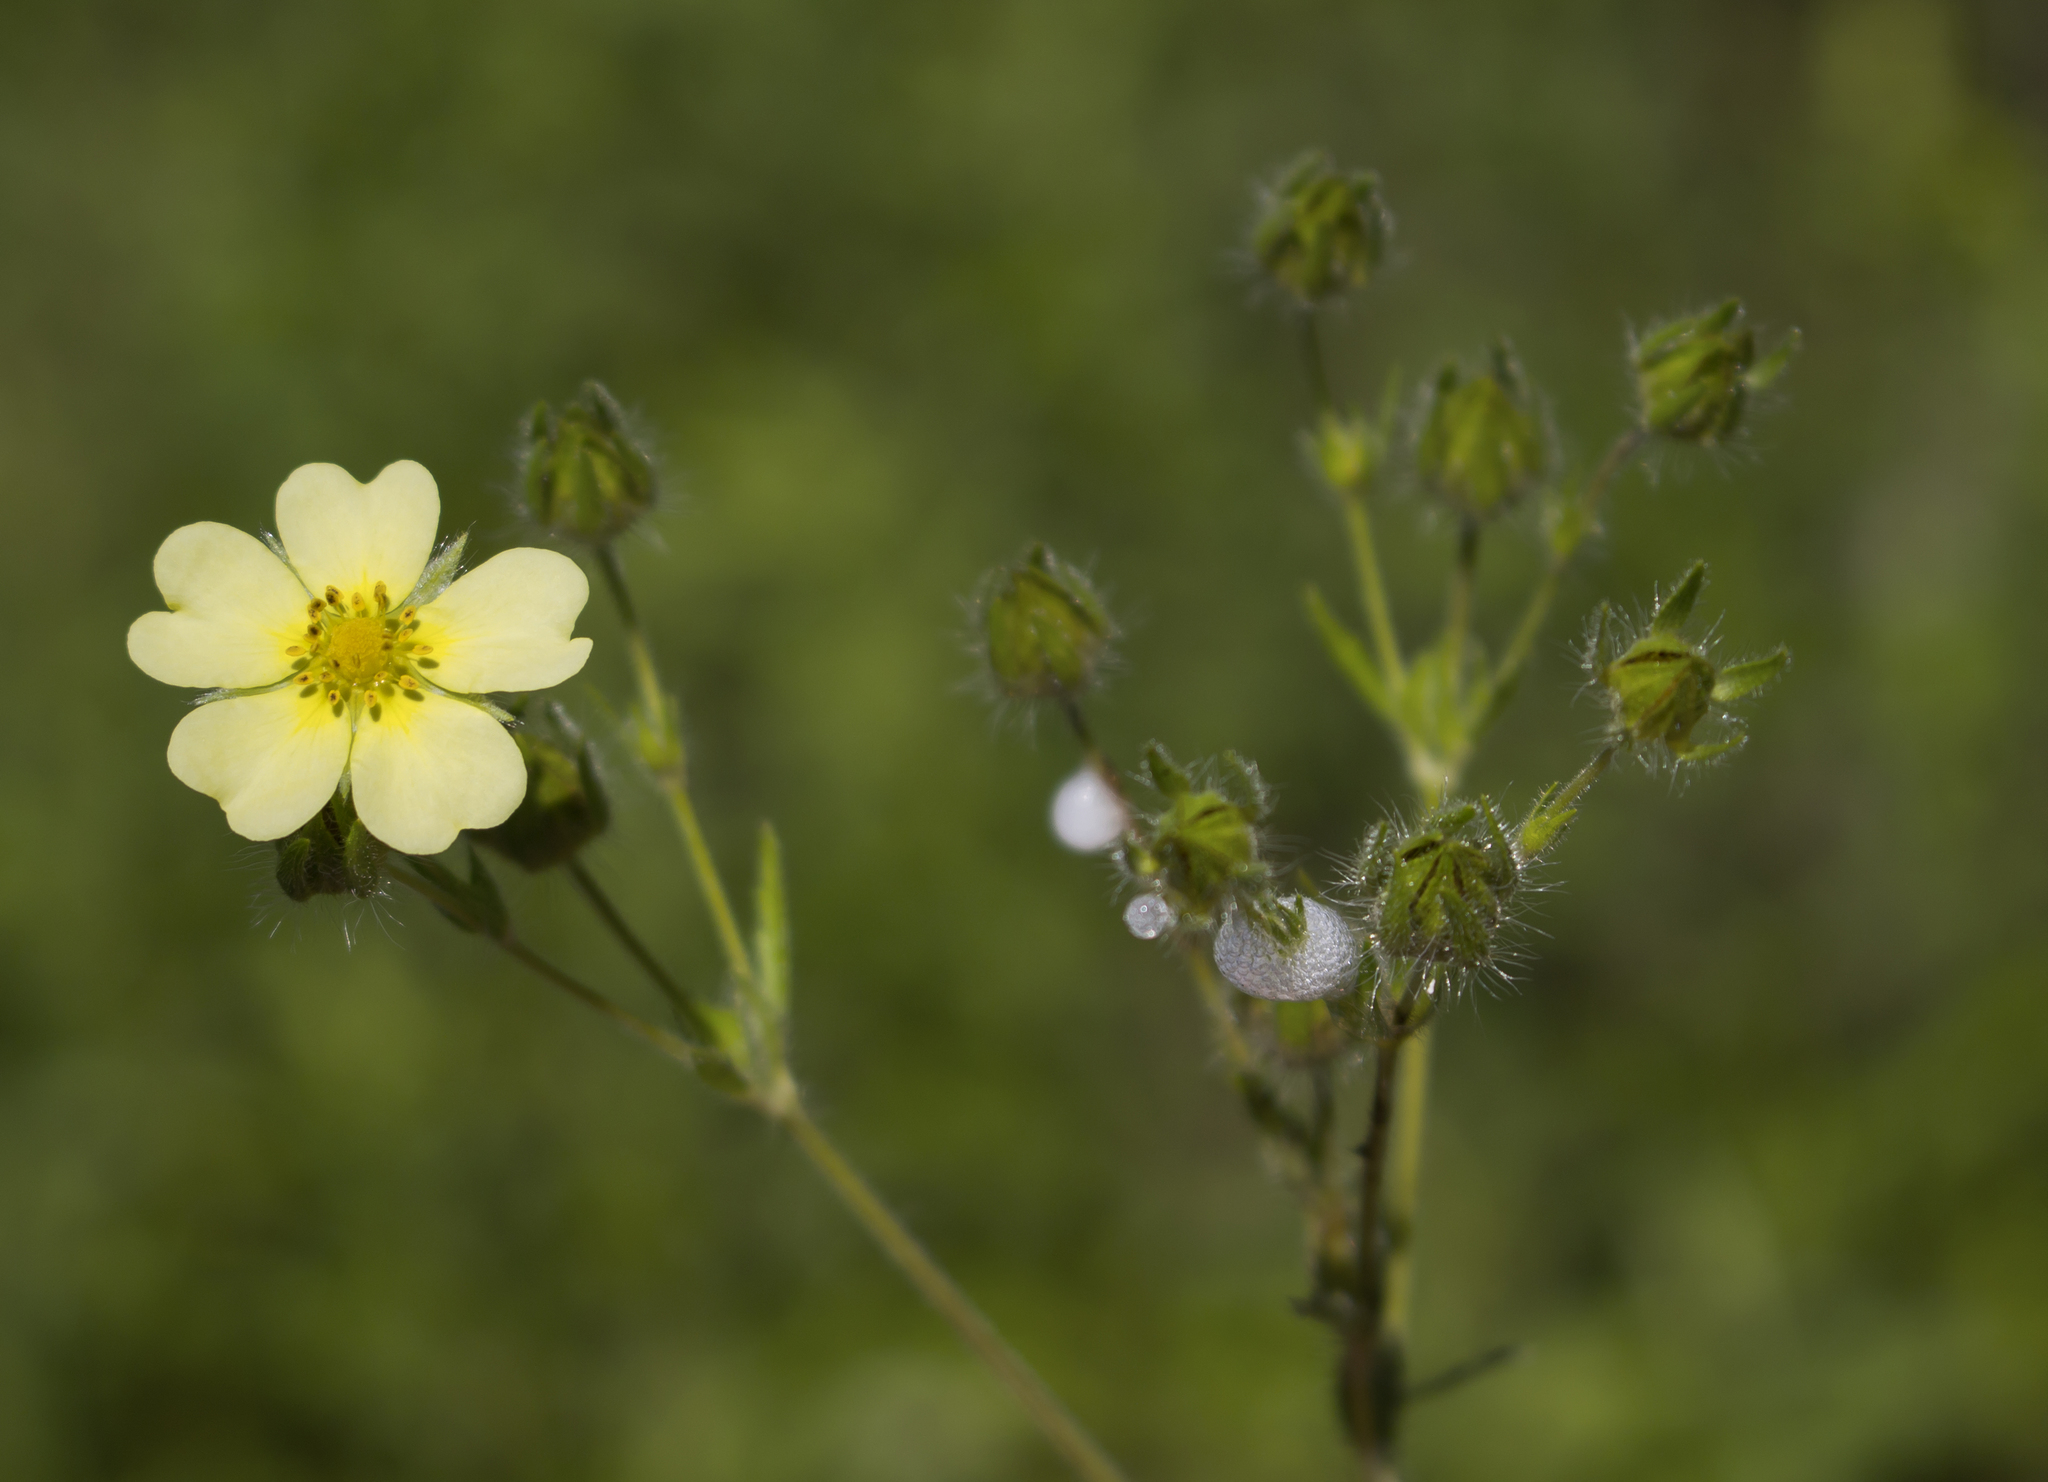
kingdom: Plantae
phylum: Tracheophyta
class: Magnoliopsida
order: Rosales
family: Rosaceae
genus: Potentilla
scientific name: Potentilla recta
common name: Sulphur cinquefoil
